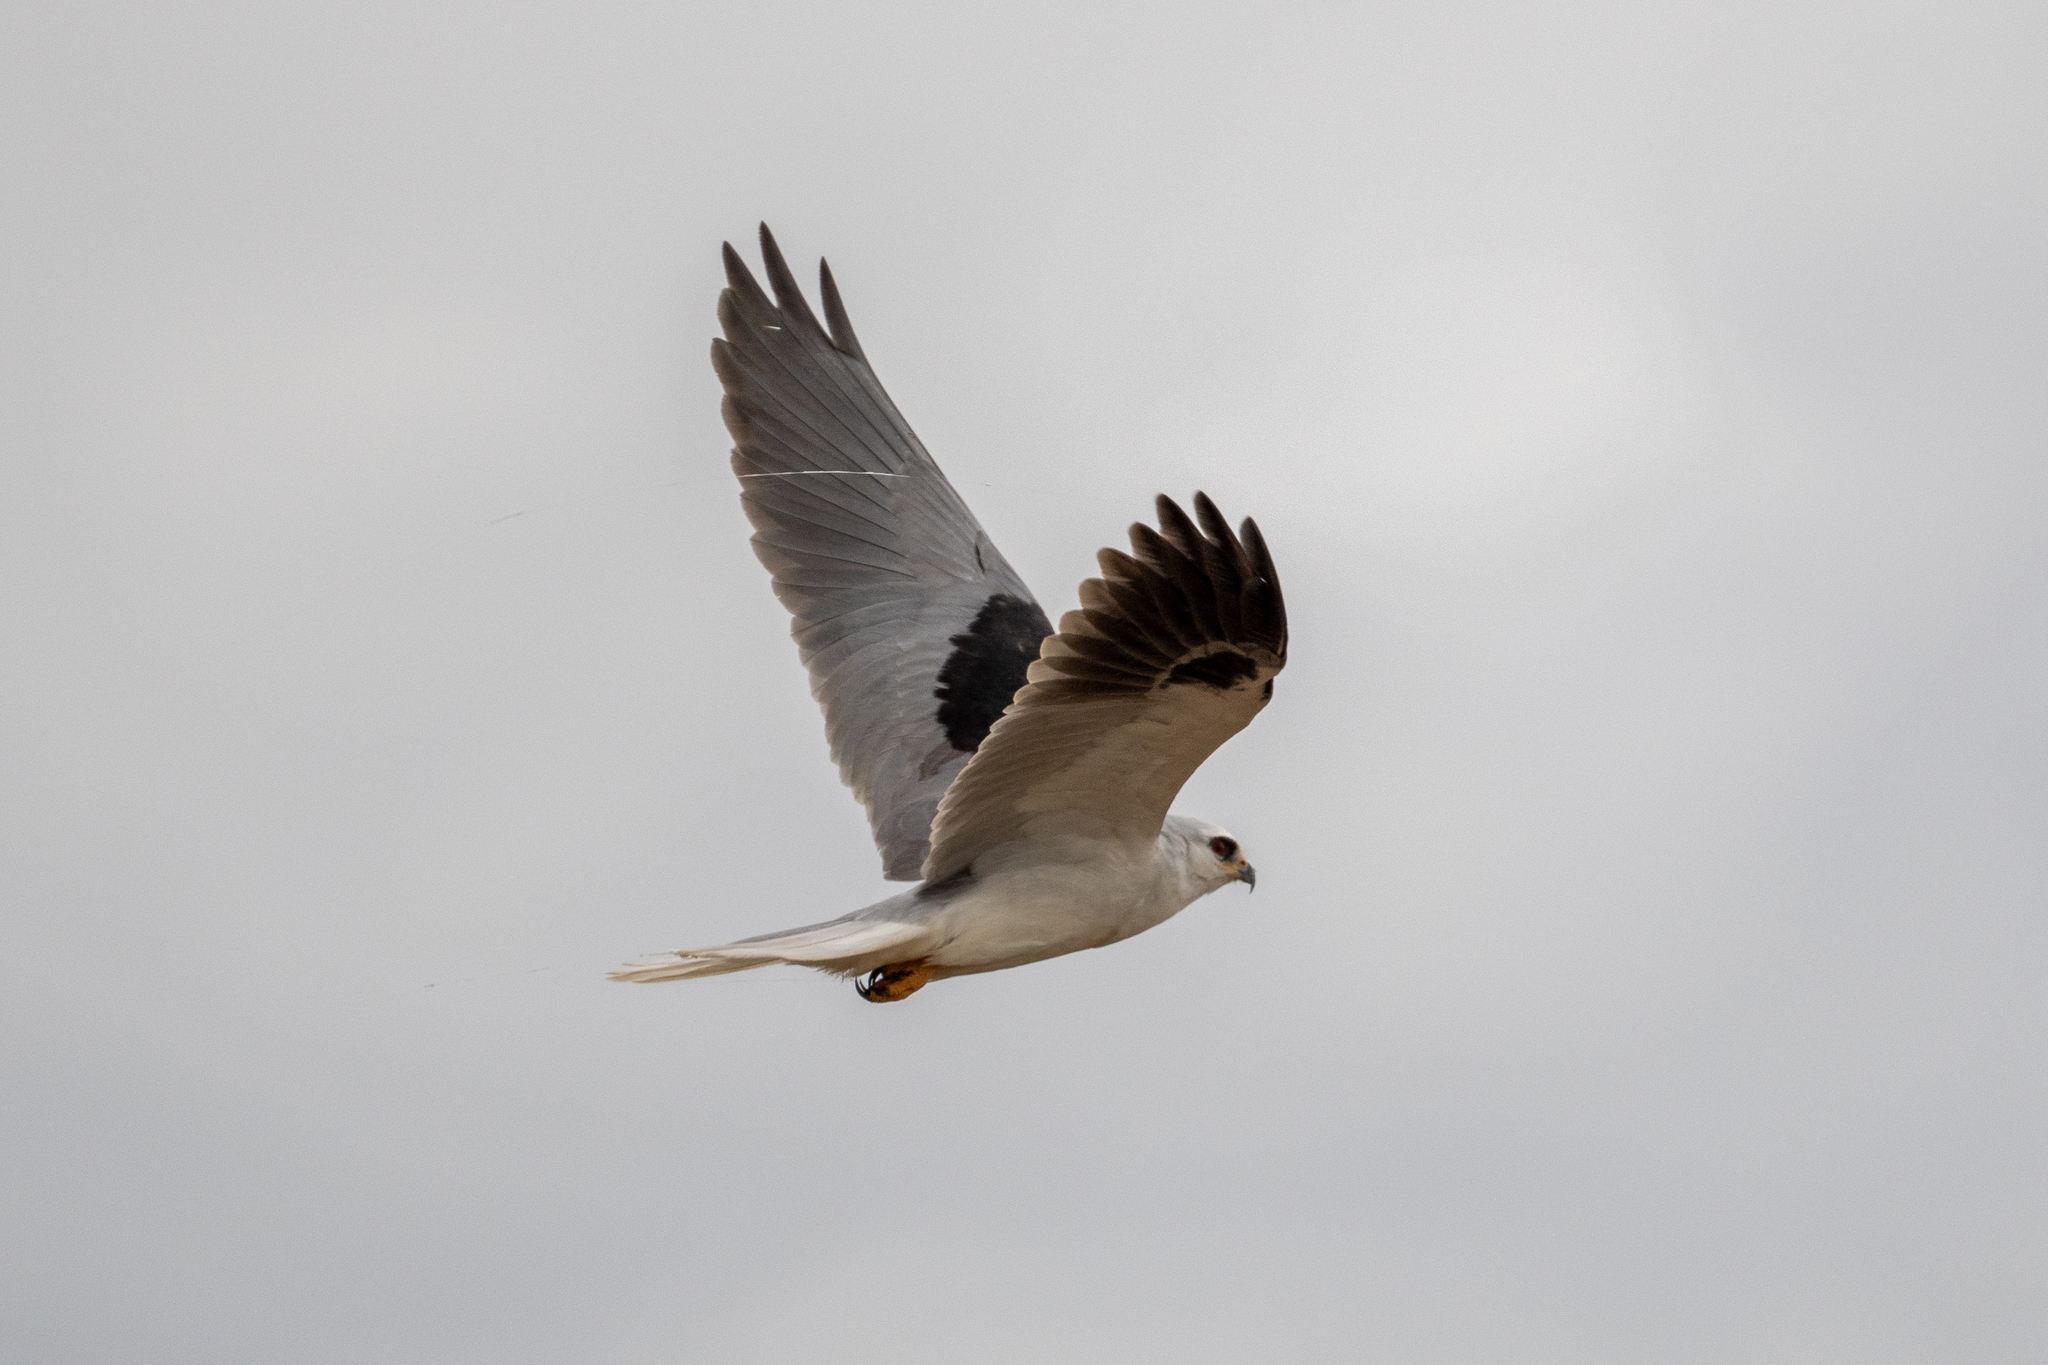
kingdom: Animalia
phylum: Chordata
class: Aves
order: Accipitriformes
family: Accipitridae
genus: Elanus
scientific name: Elanus leucurus
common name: White-tailed kite
